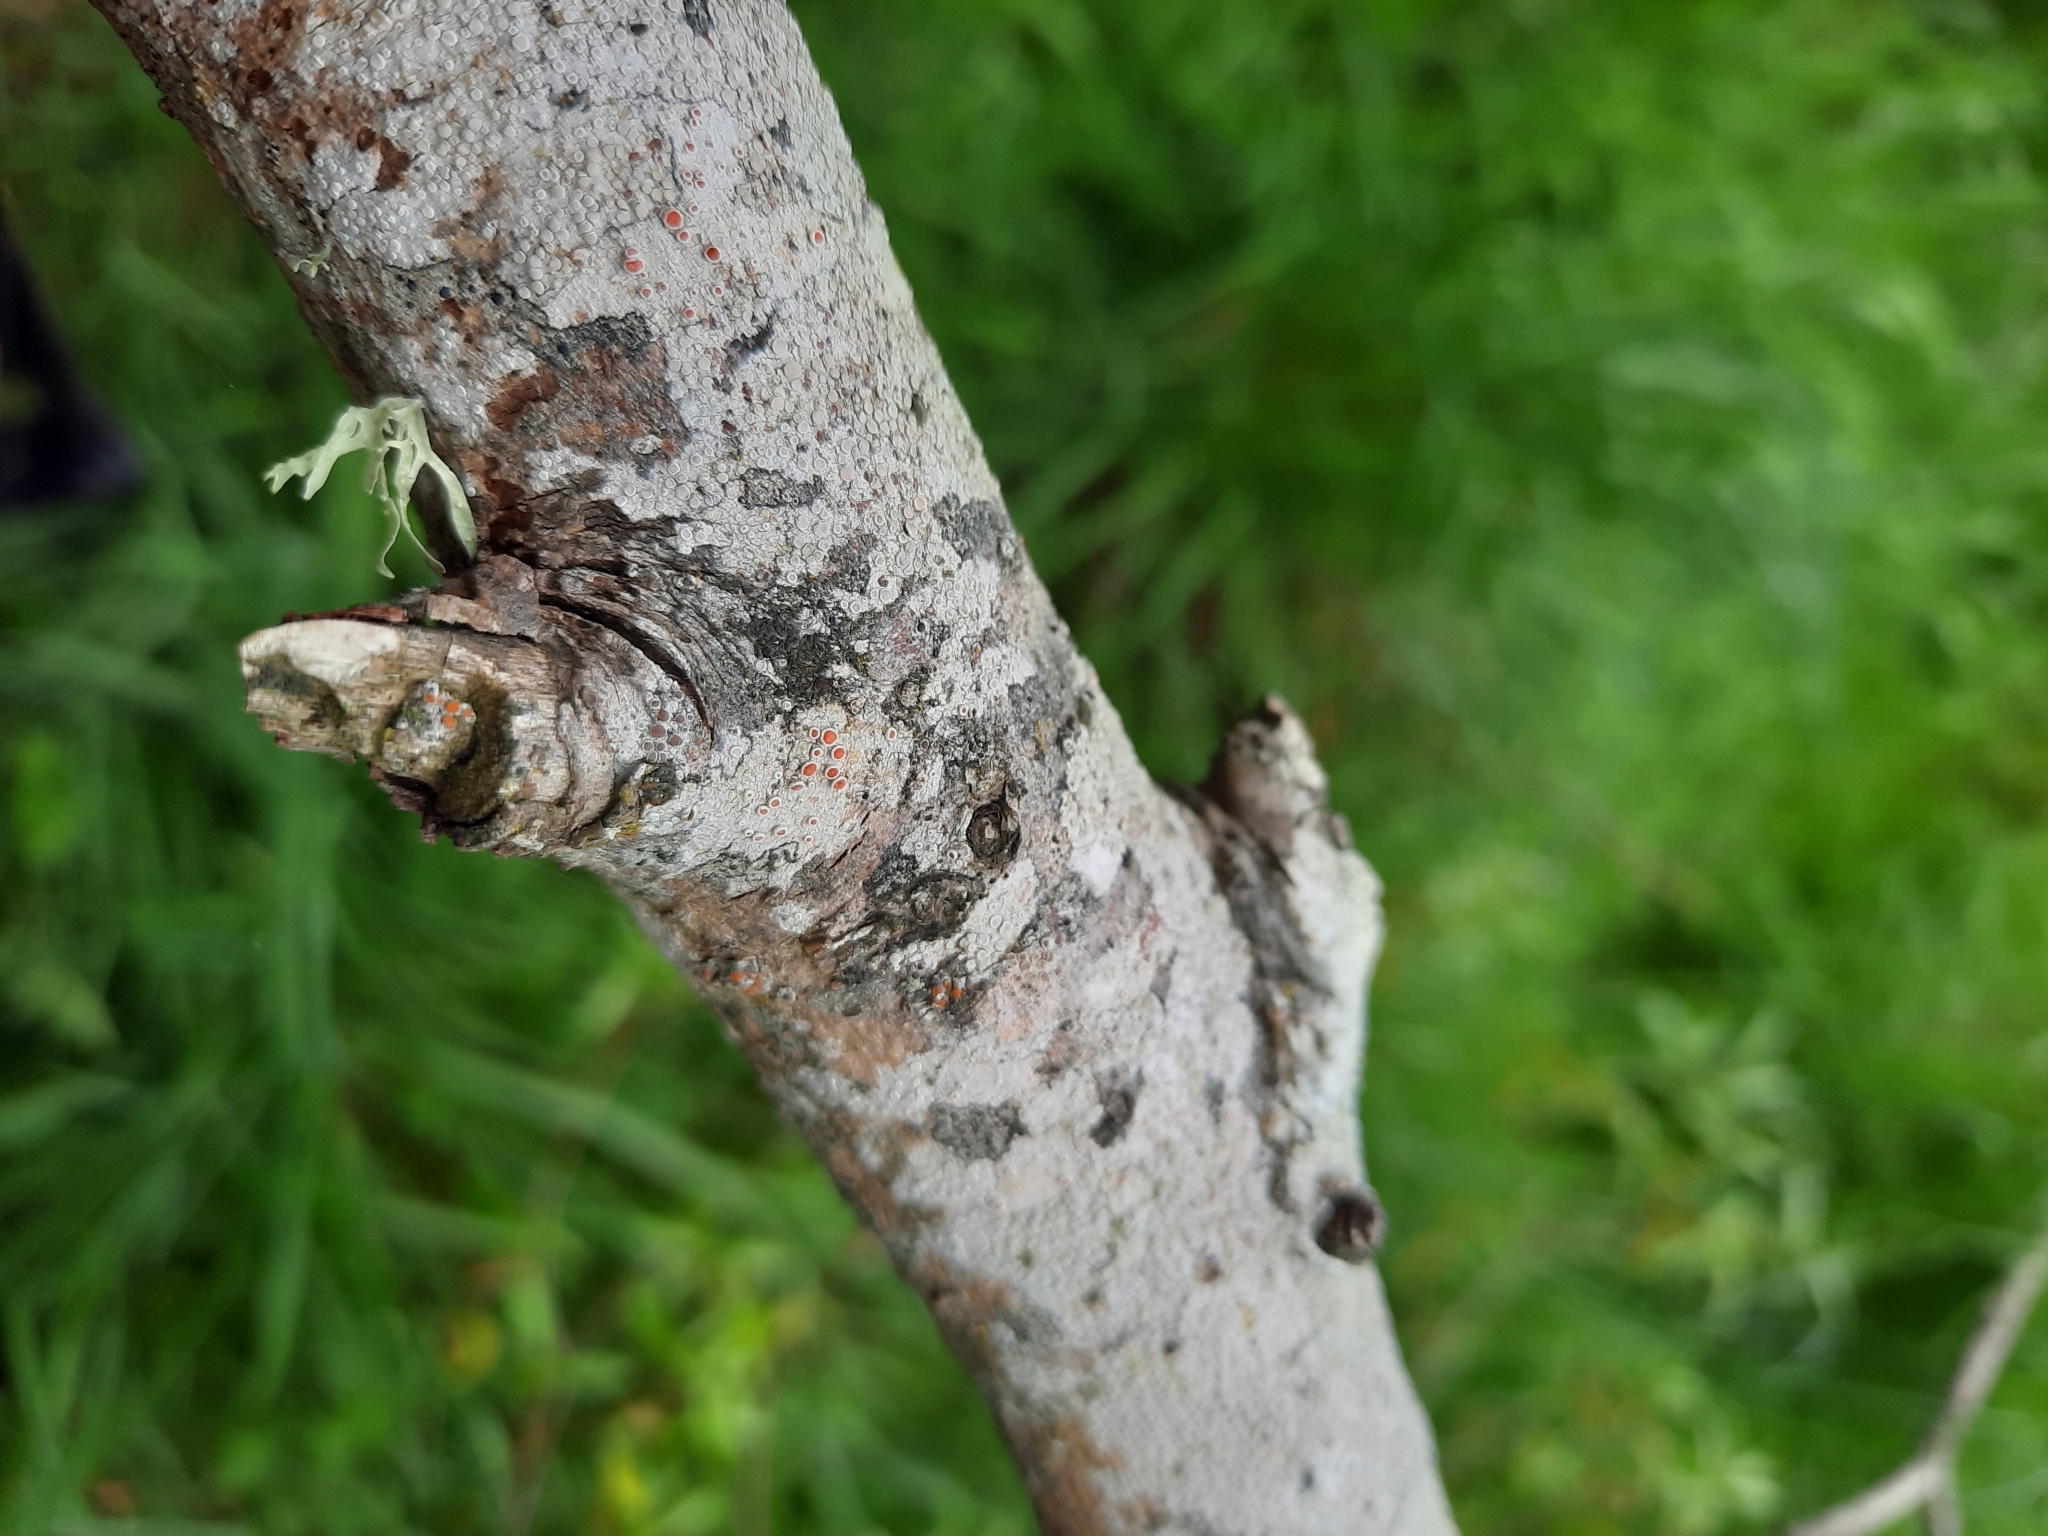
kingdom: Fungi
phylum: Ascomycota
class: Lecanoromycetes
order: Lecanorales
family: Haematommataceae
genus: Haematomma
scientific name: Haematomma babingtonii
